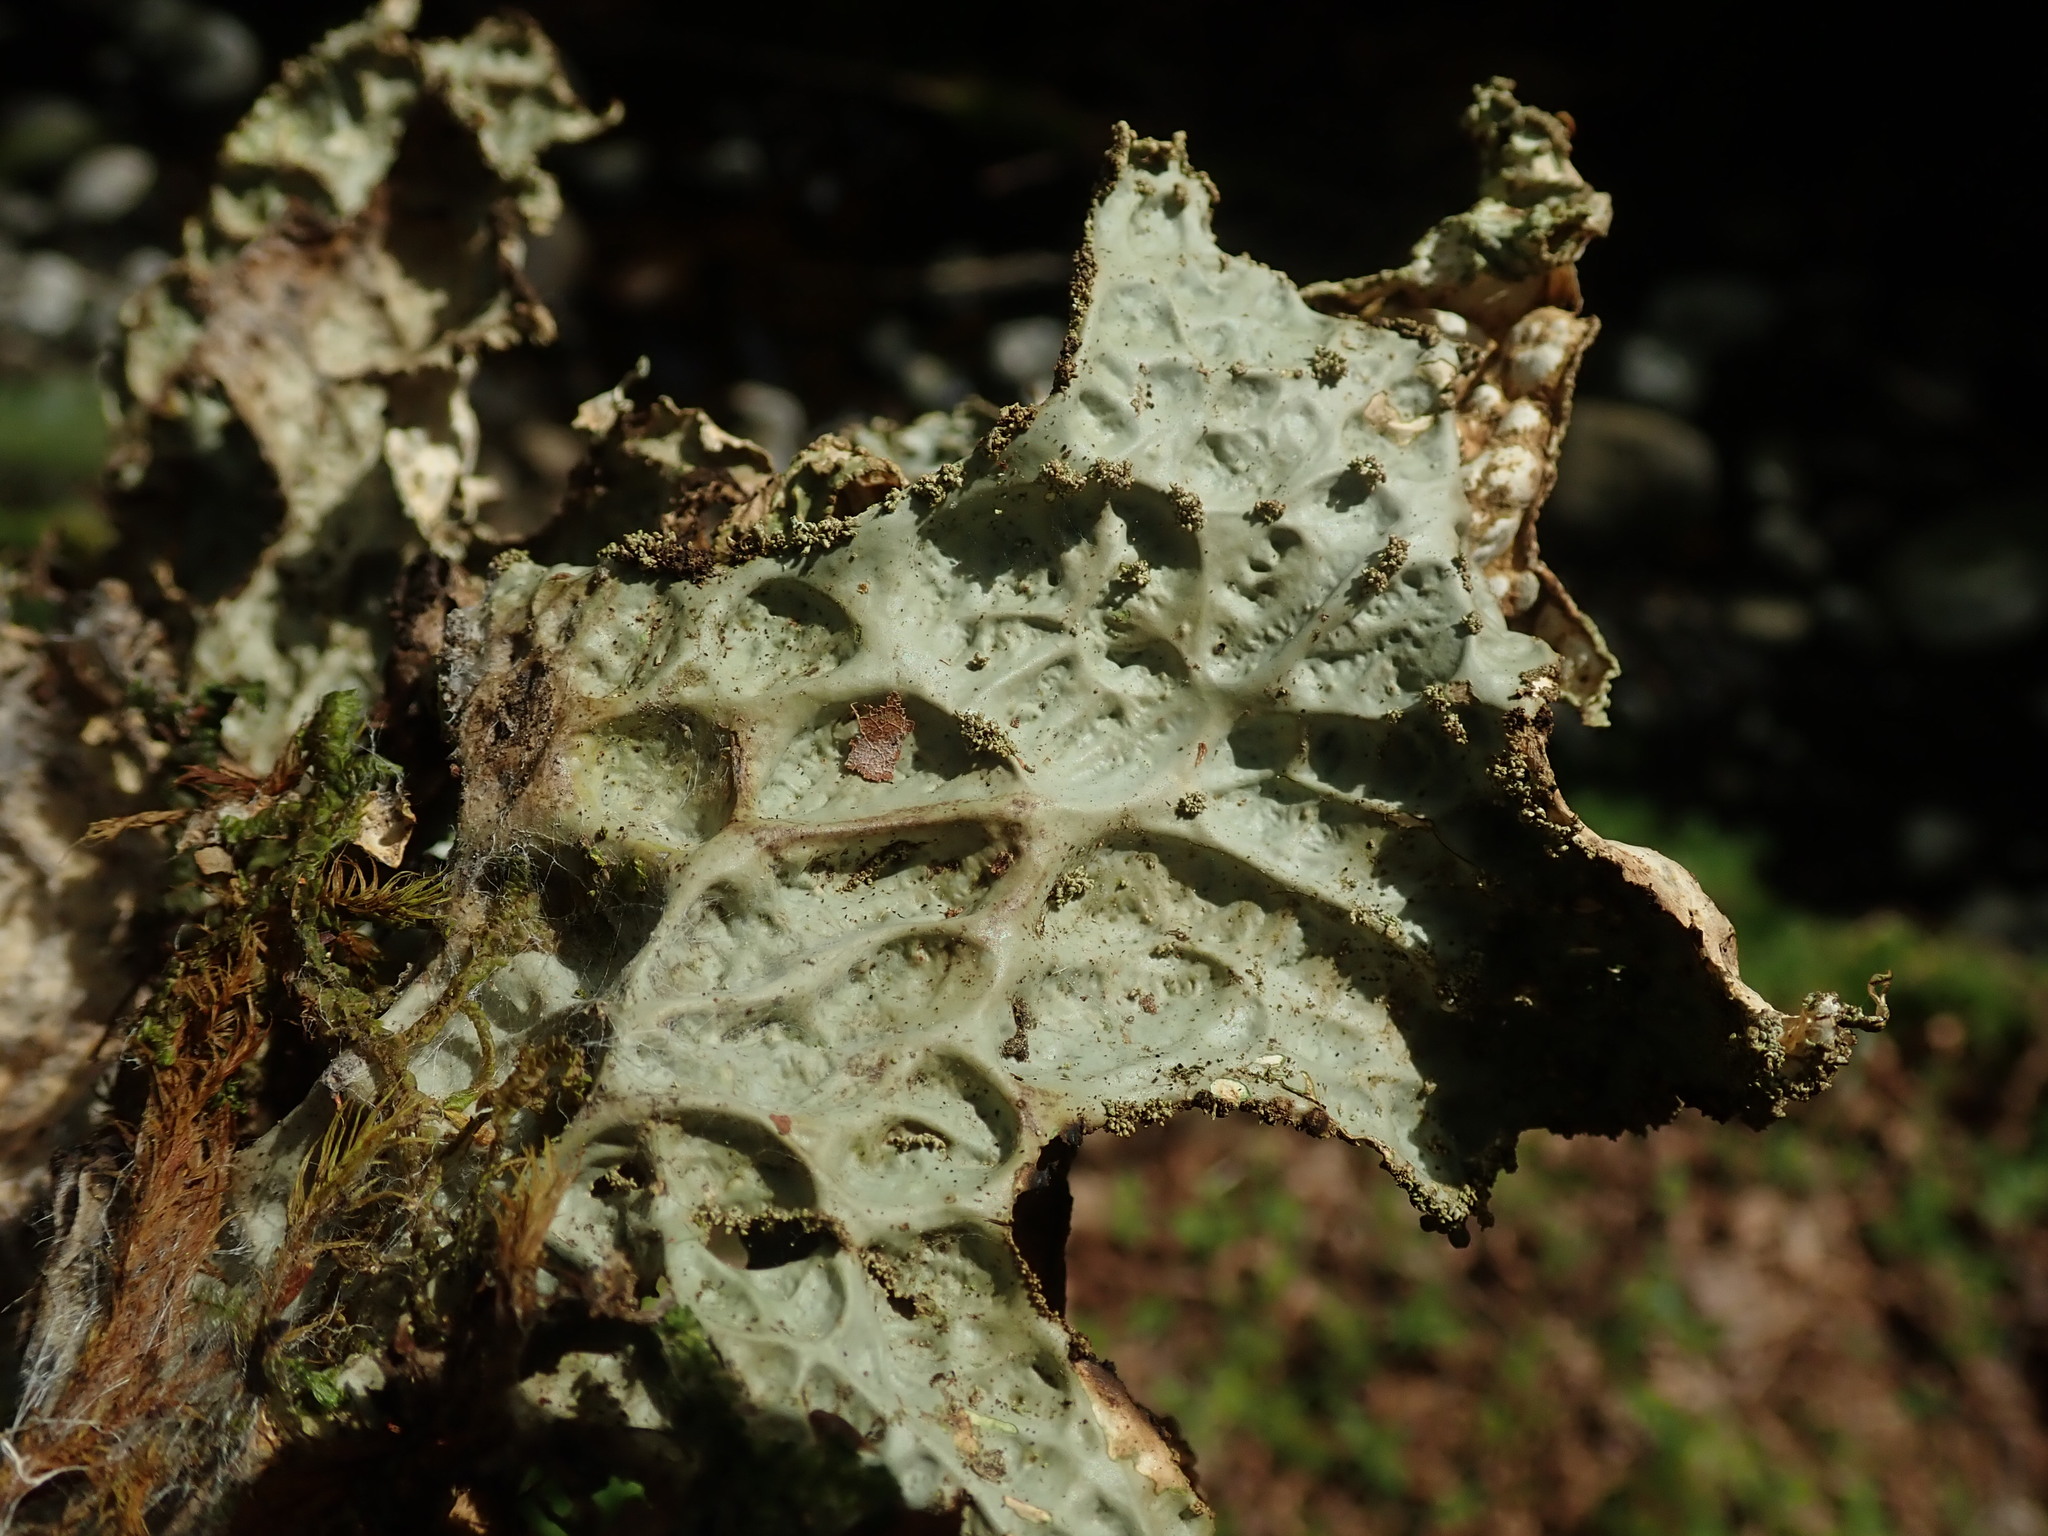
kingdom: Fungi
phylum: Ascomycota
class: Lecanoromycetes
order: Peltigerales
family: Lobariaceae
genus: Lobaria
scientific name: Lobaria pulmonaria
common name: Lungwort
